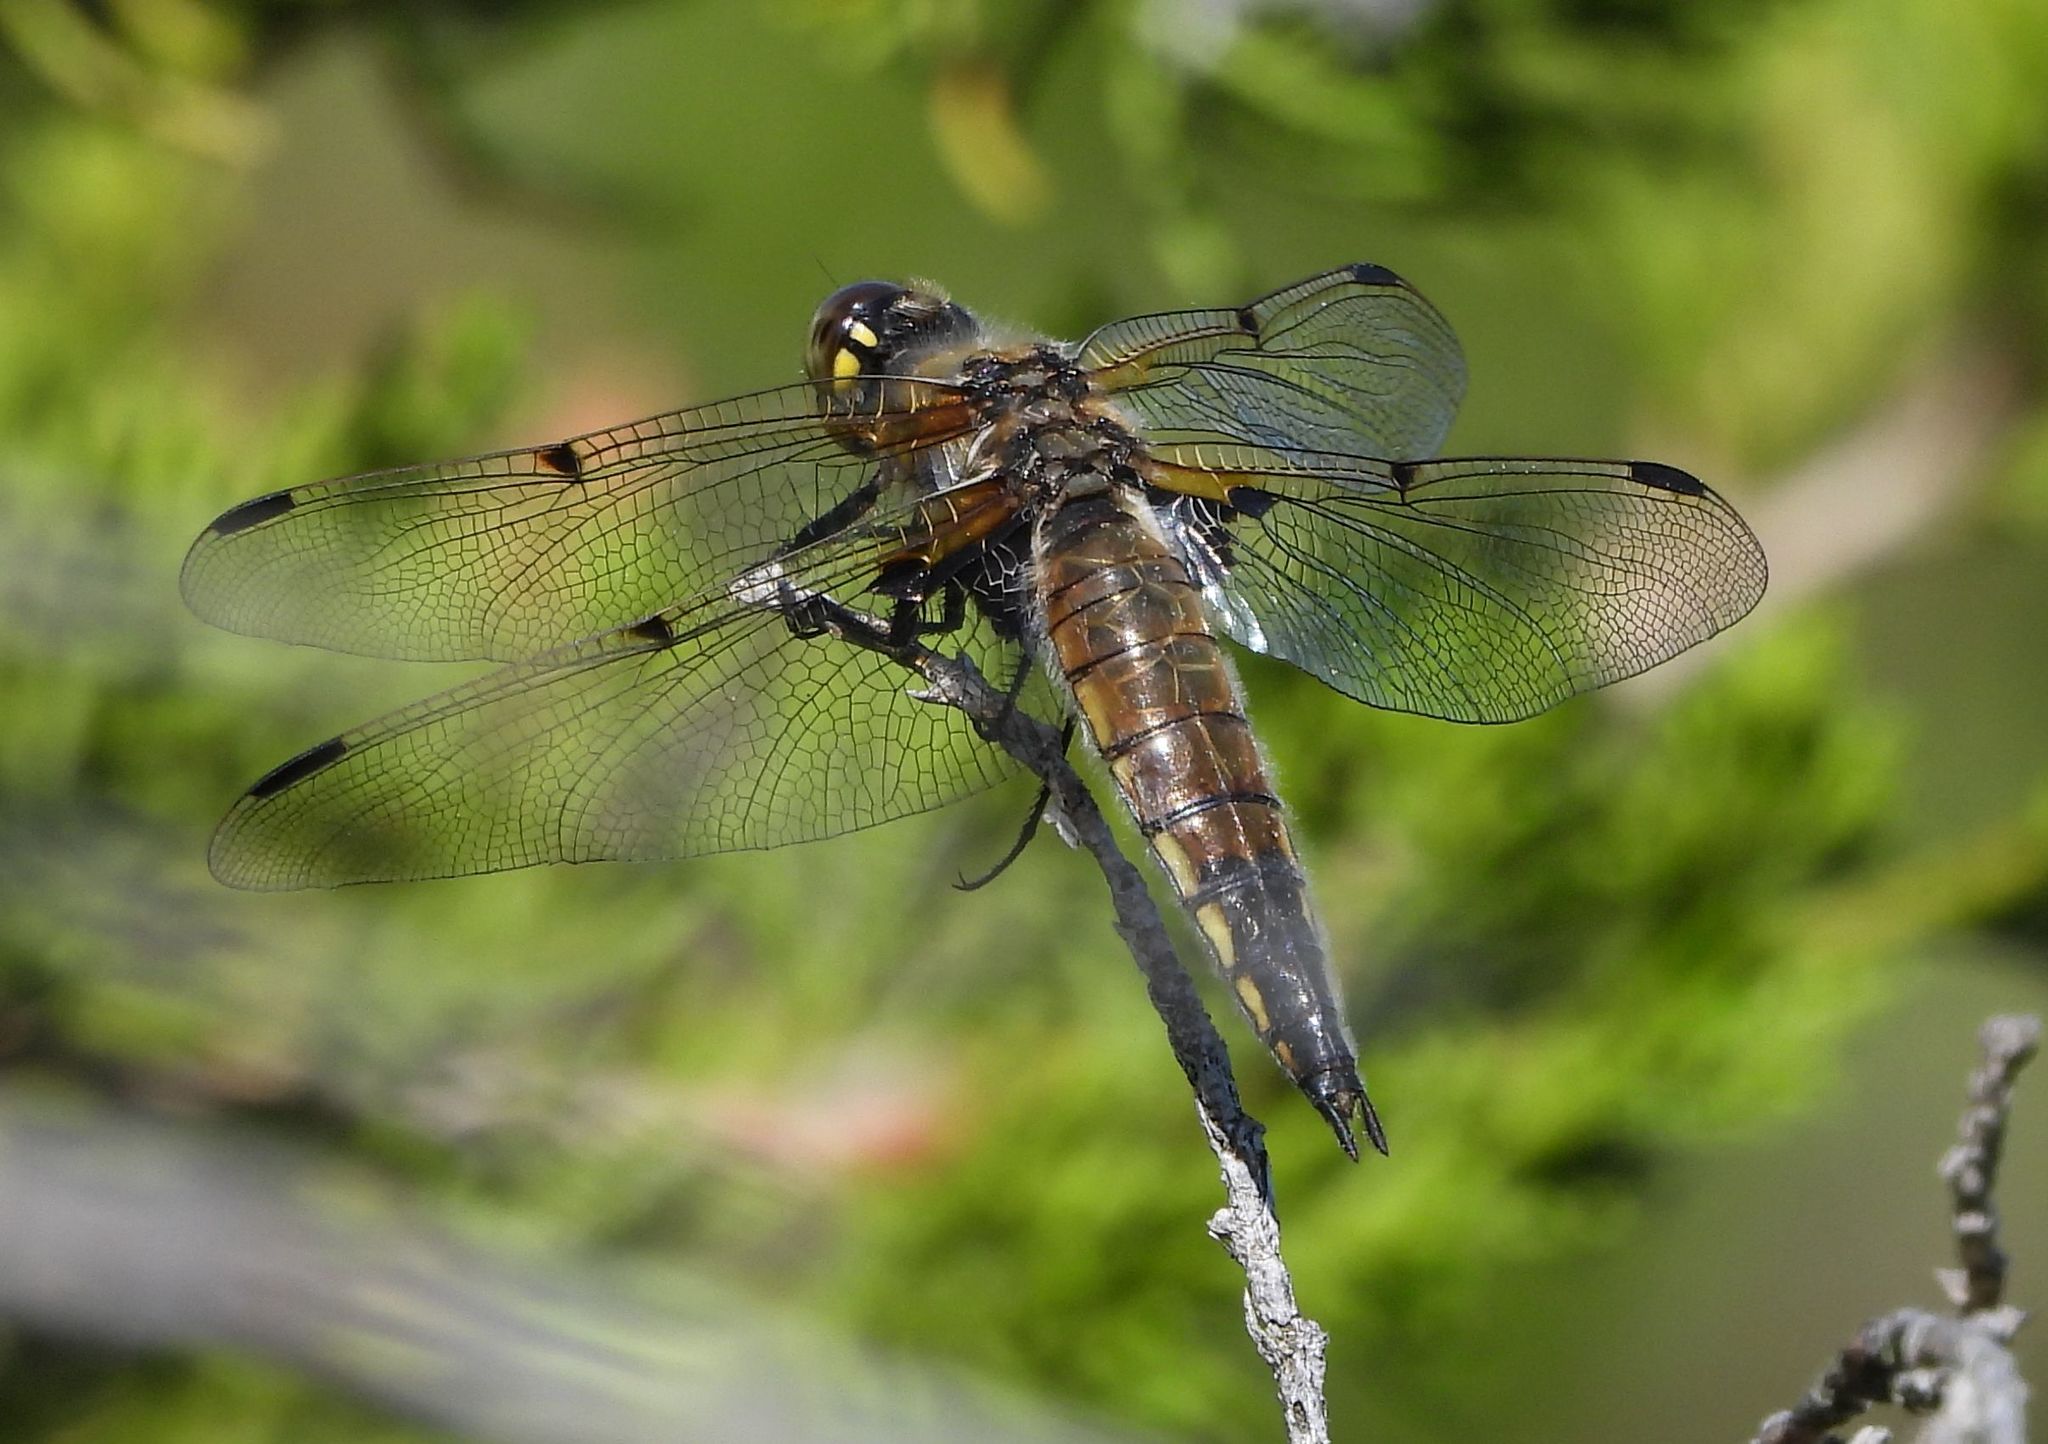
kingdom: Animalia
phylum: Arthropoda
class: Insecta
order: Odonata
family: Libellulidae
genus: Libellula
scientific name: Libellula quadrimaculata
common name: Four-spotted chaser
